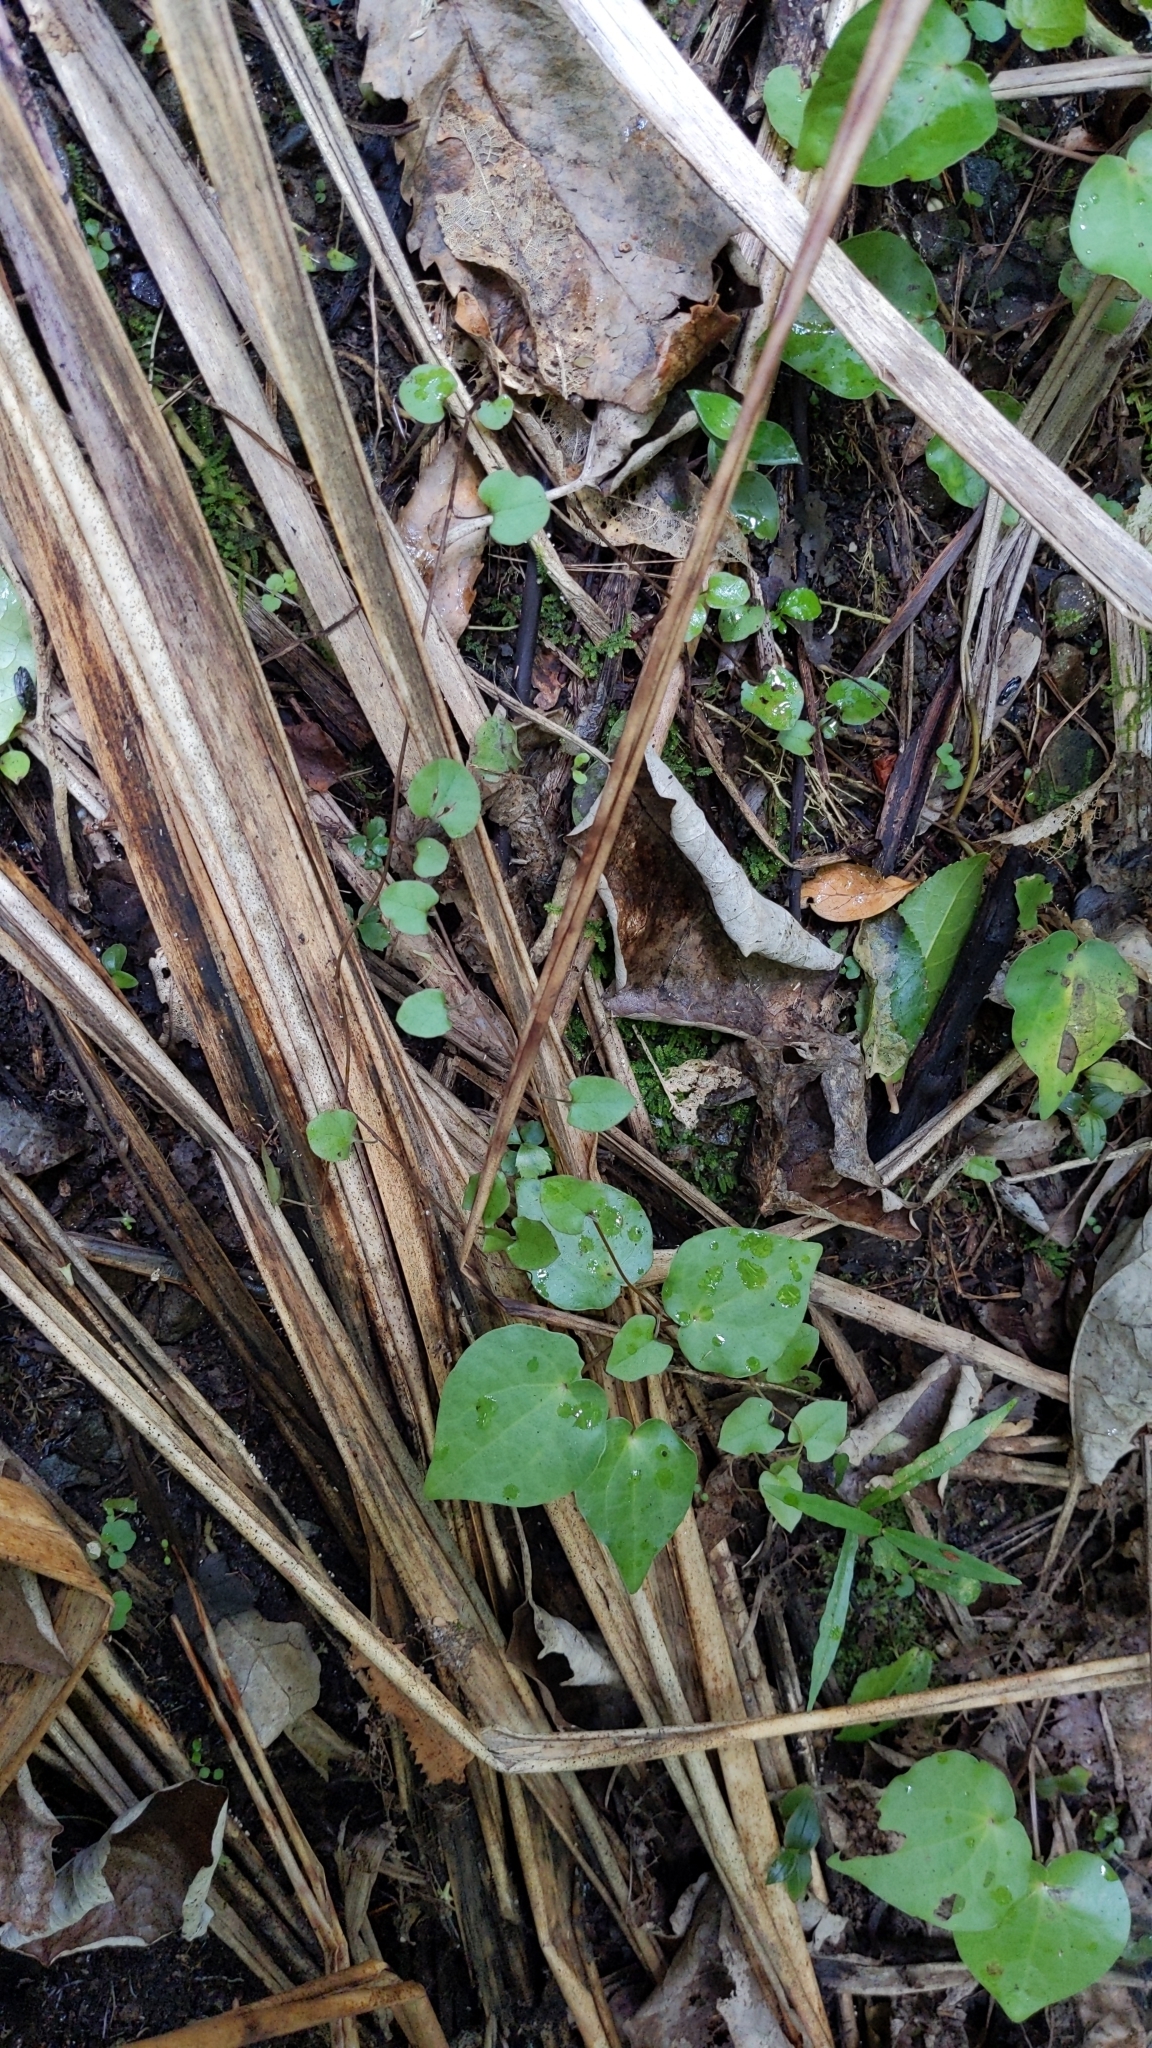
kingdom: Plantae
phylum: Tracheophyta
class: Magnoliopsida
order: Caryophyllales
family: Polygonaceae
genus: Muehlenbeckia
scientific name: Muehlenbeckia australis
